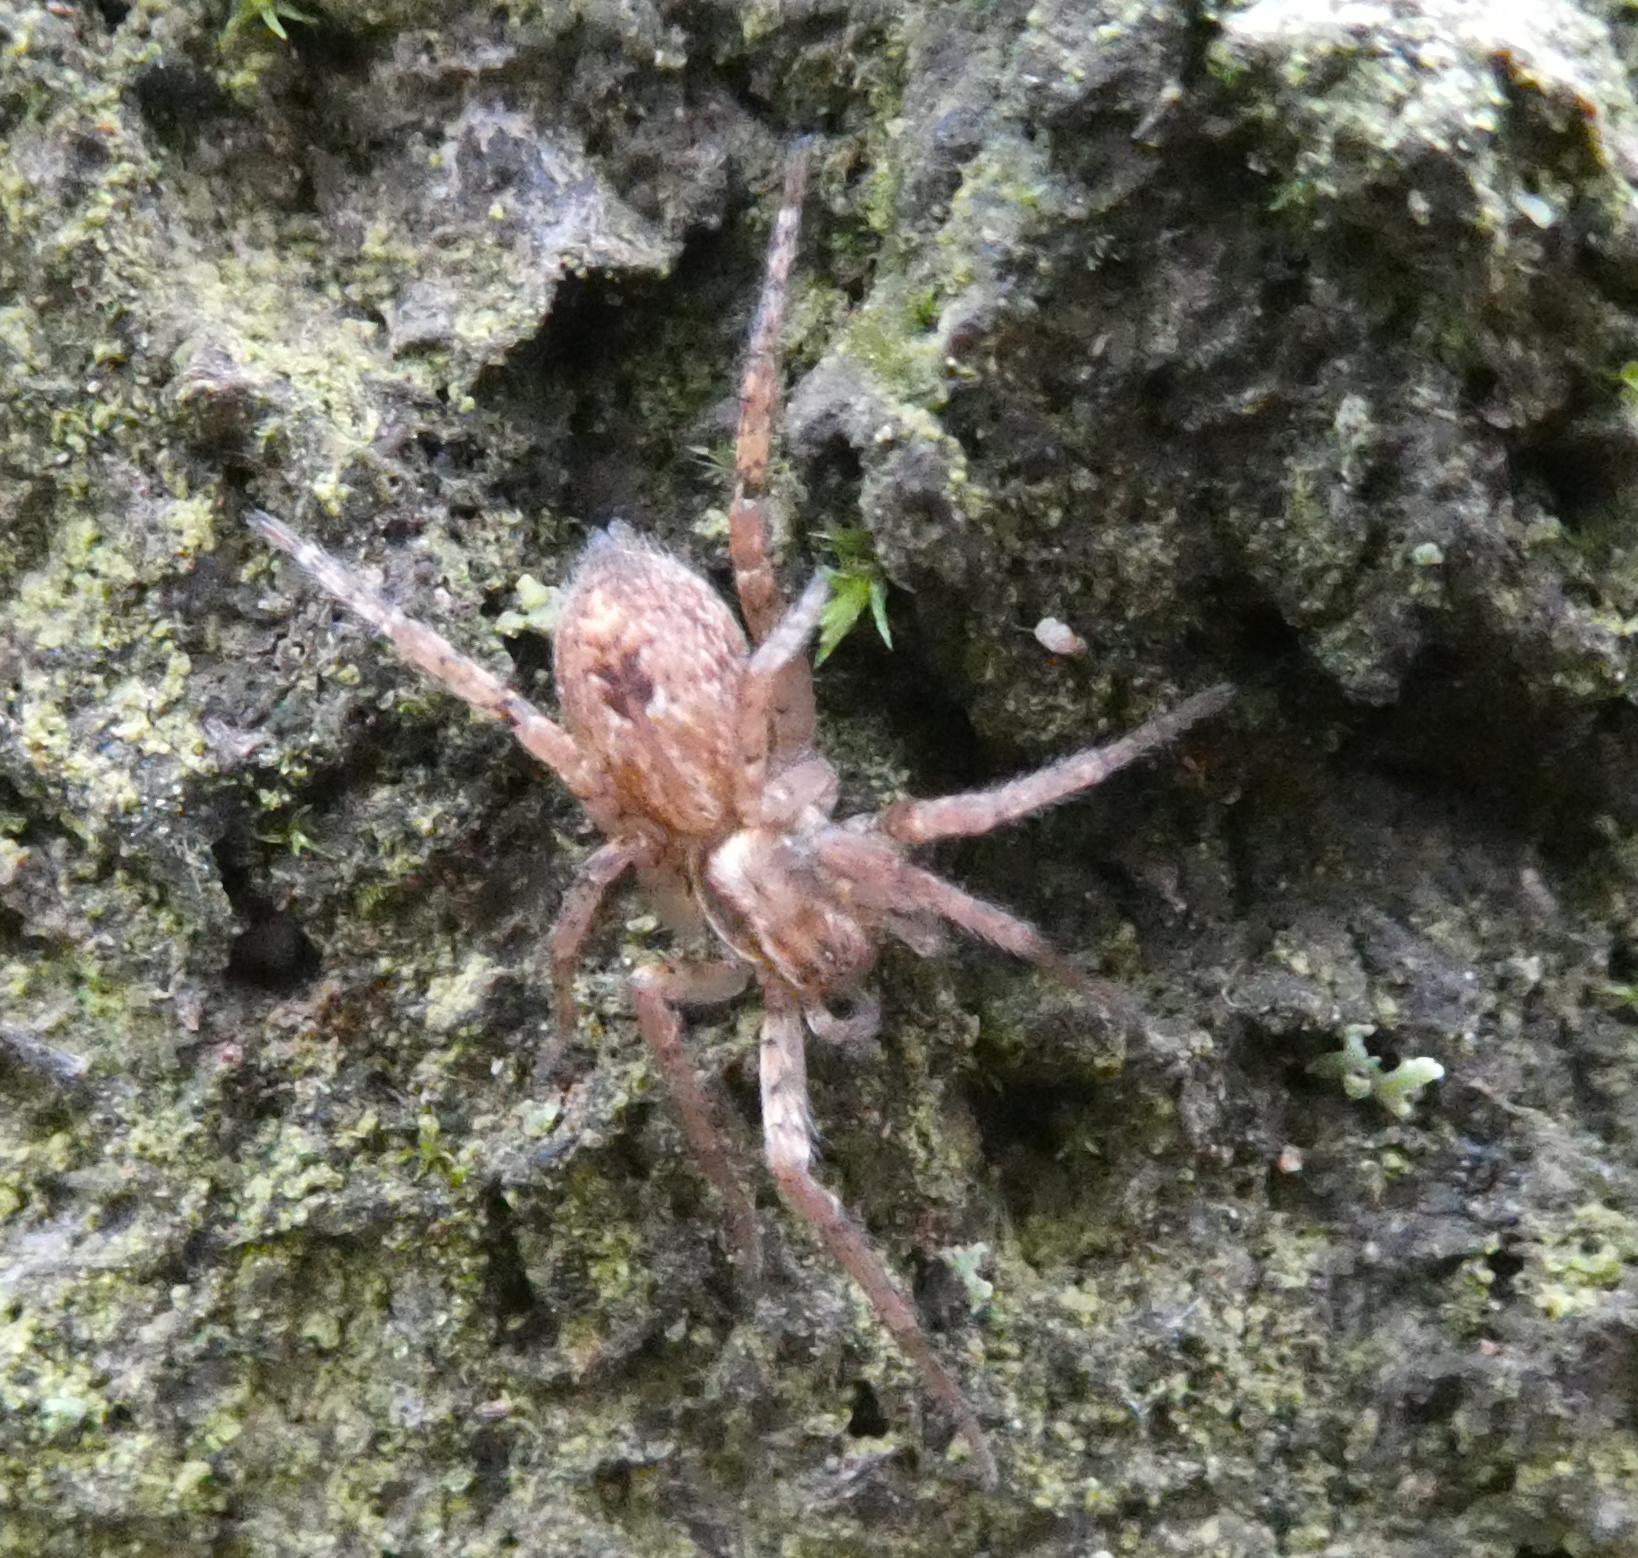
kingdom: Animalia
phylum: Arthropoda
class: Arachnida
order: Araneae
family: Anyphaenidae
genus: Anyphaena
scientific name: Anyphaena accentuata
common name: Buzzing spider
